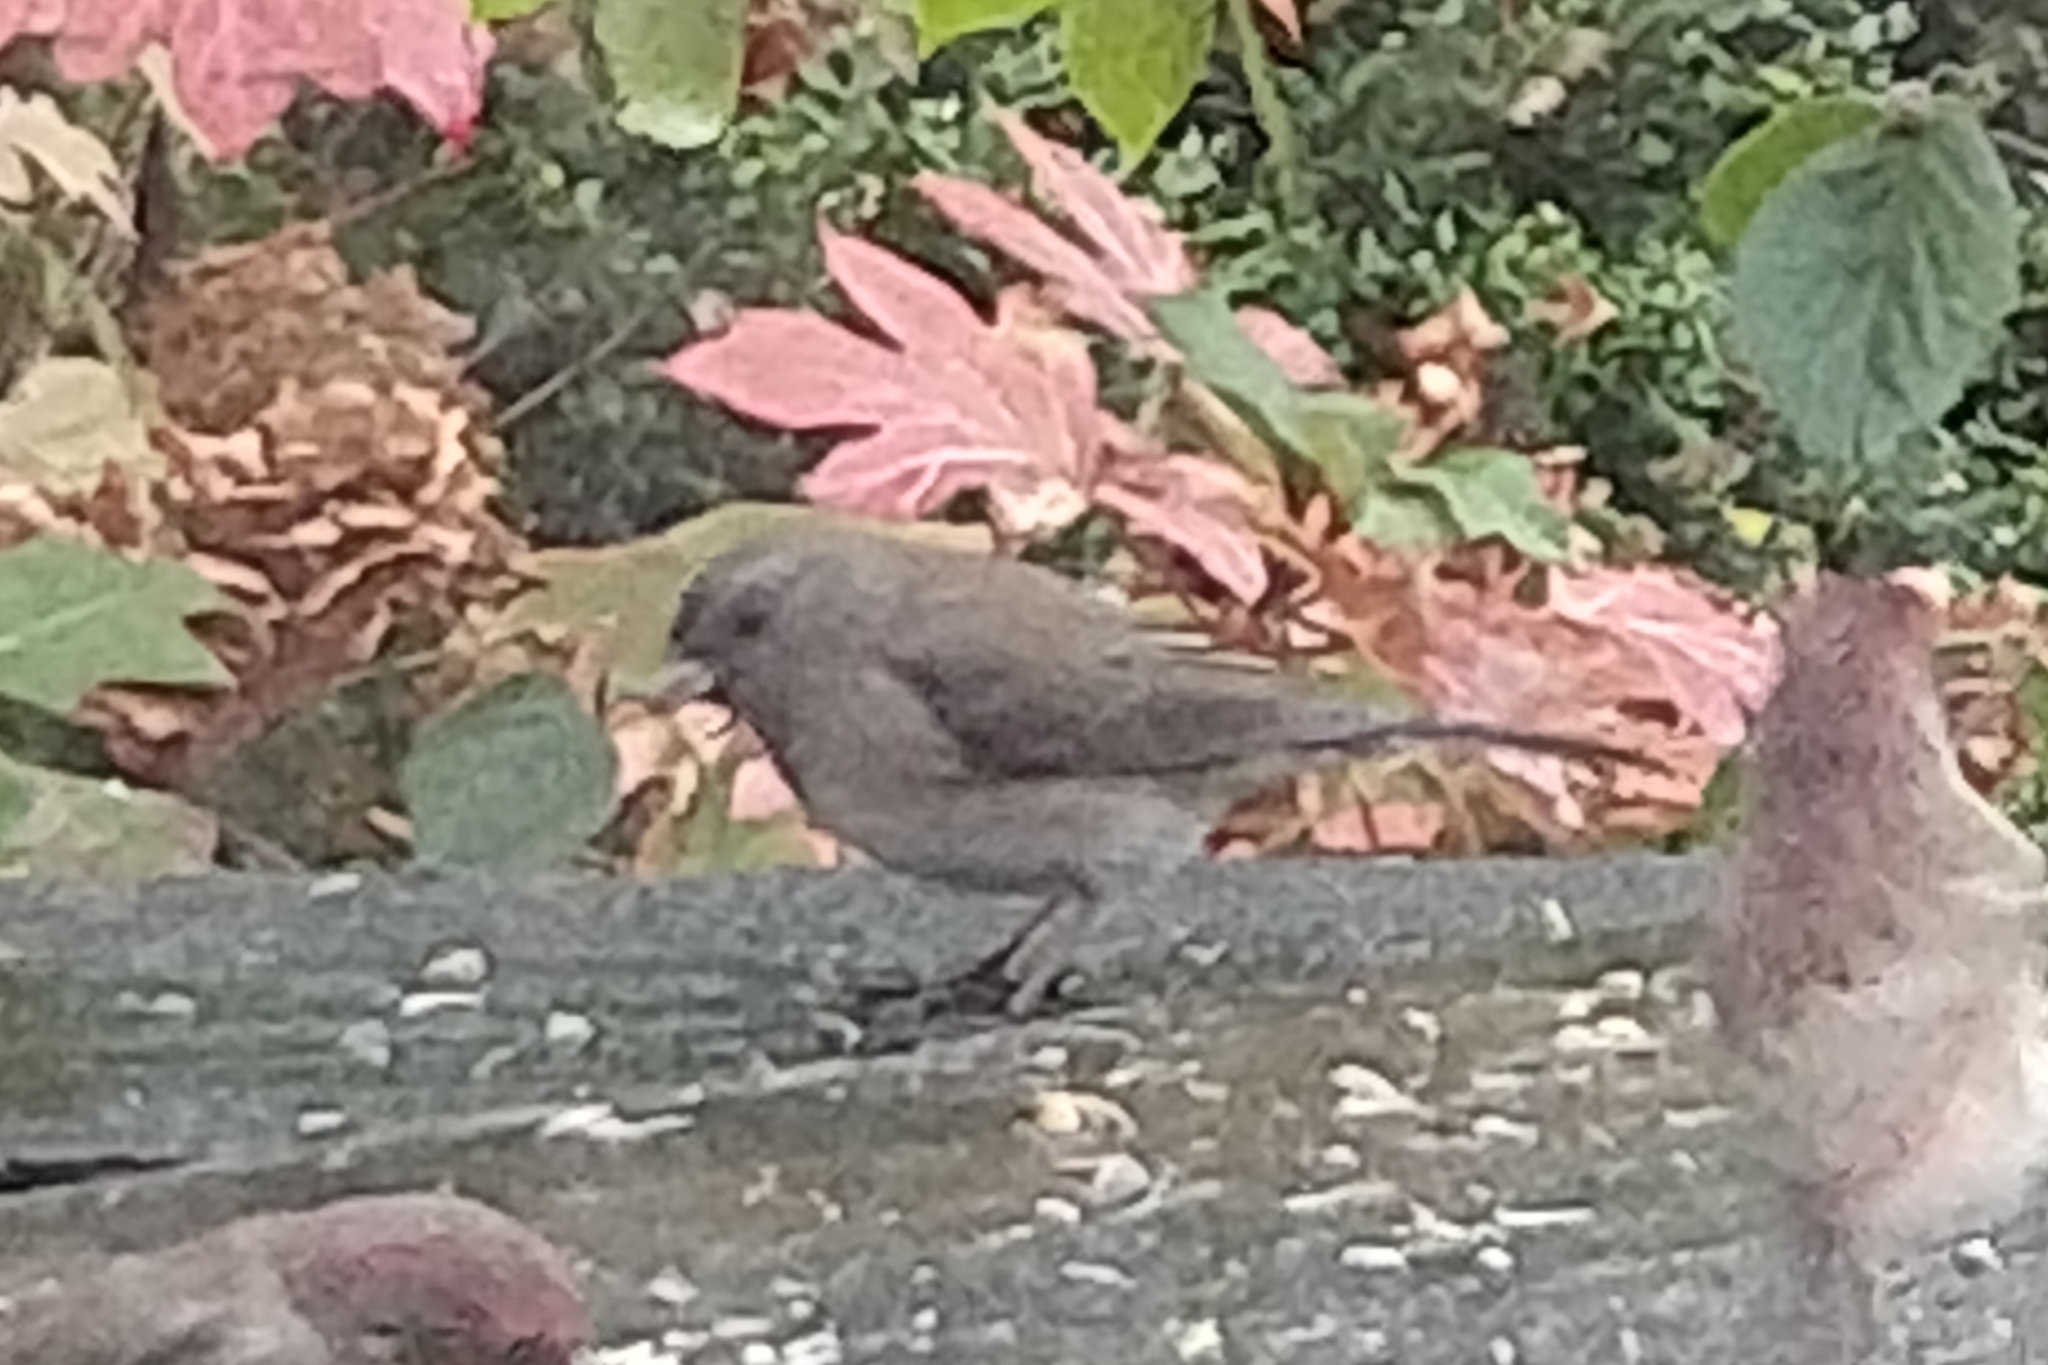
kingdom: Animalia
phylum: Chordata
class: Aves
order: Passeriformes
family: Passerellidae
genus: Junco
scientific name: Junco hyemalis
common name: Dark-eyed junco
